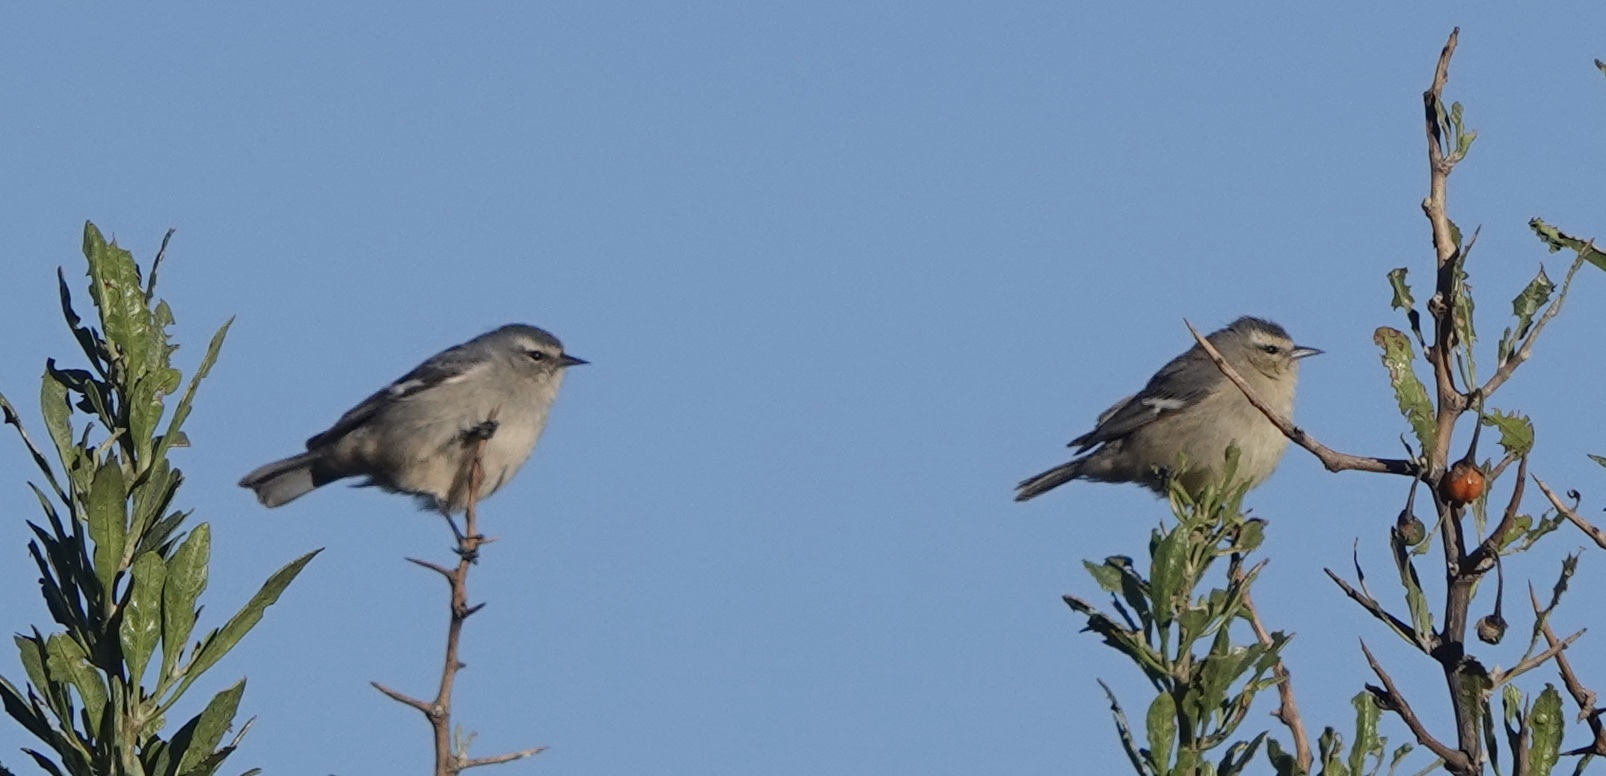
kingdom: Animalia
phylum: Chordata
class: Aves
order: Passeriformes
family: Thraupidae
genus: Conirostrum
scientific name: Conirostrum cinereum
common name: Cinereous conebill
